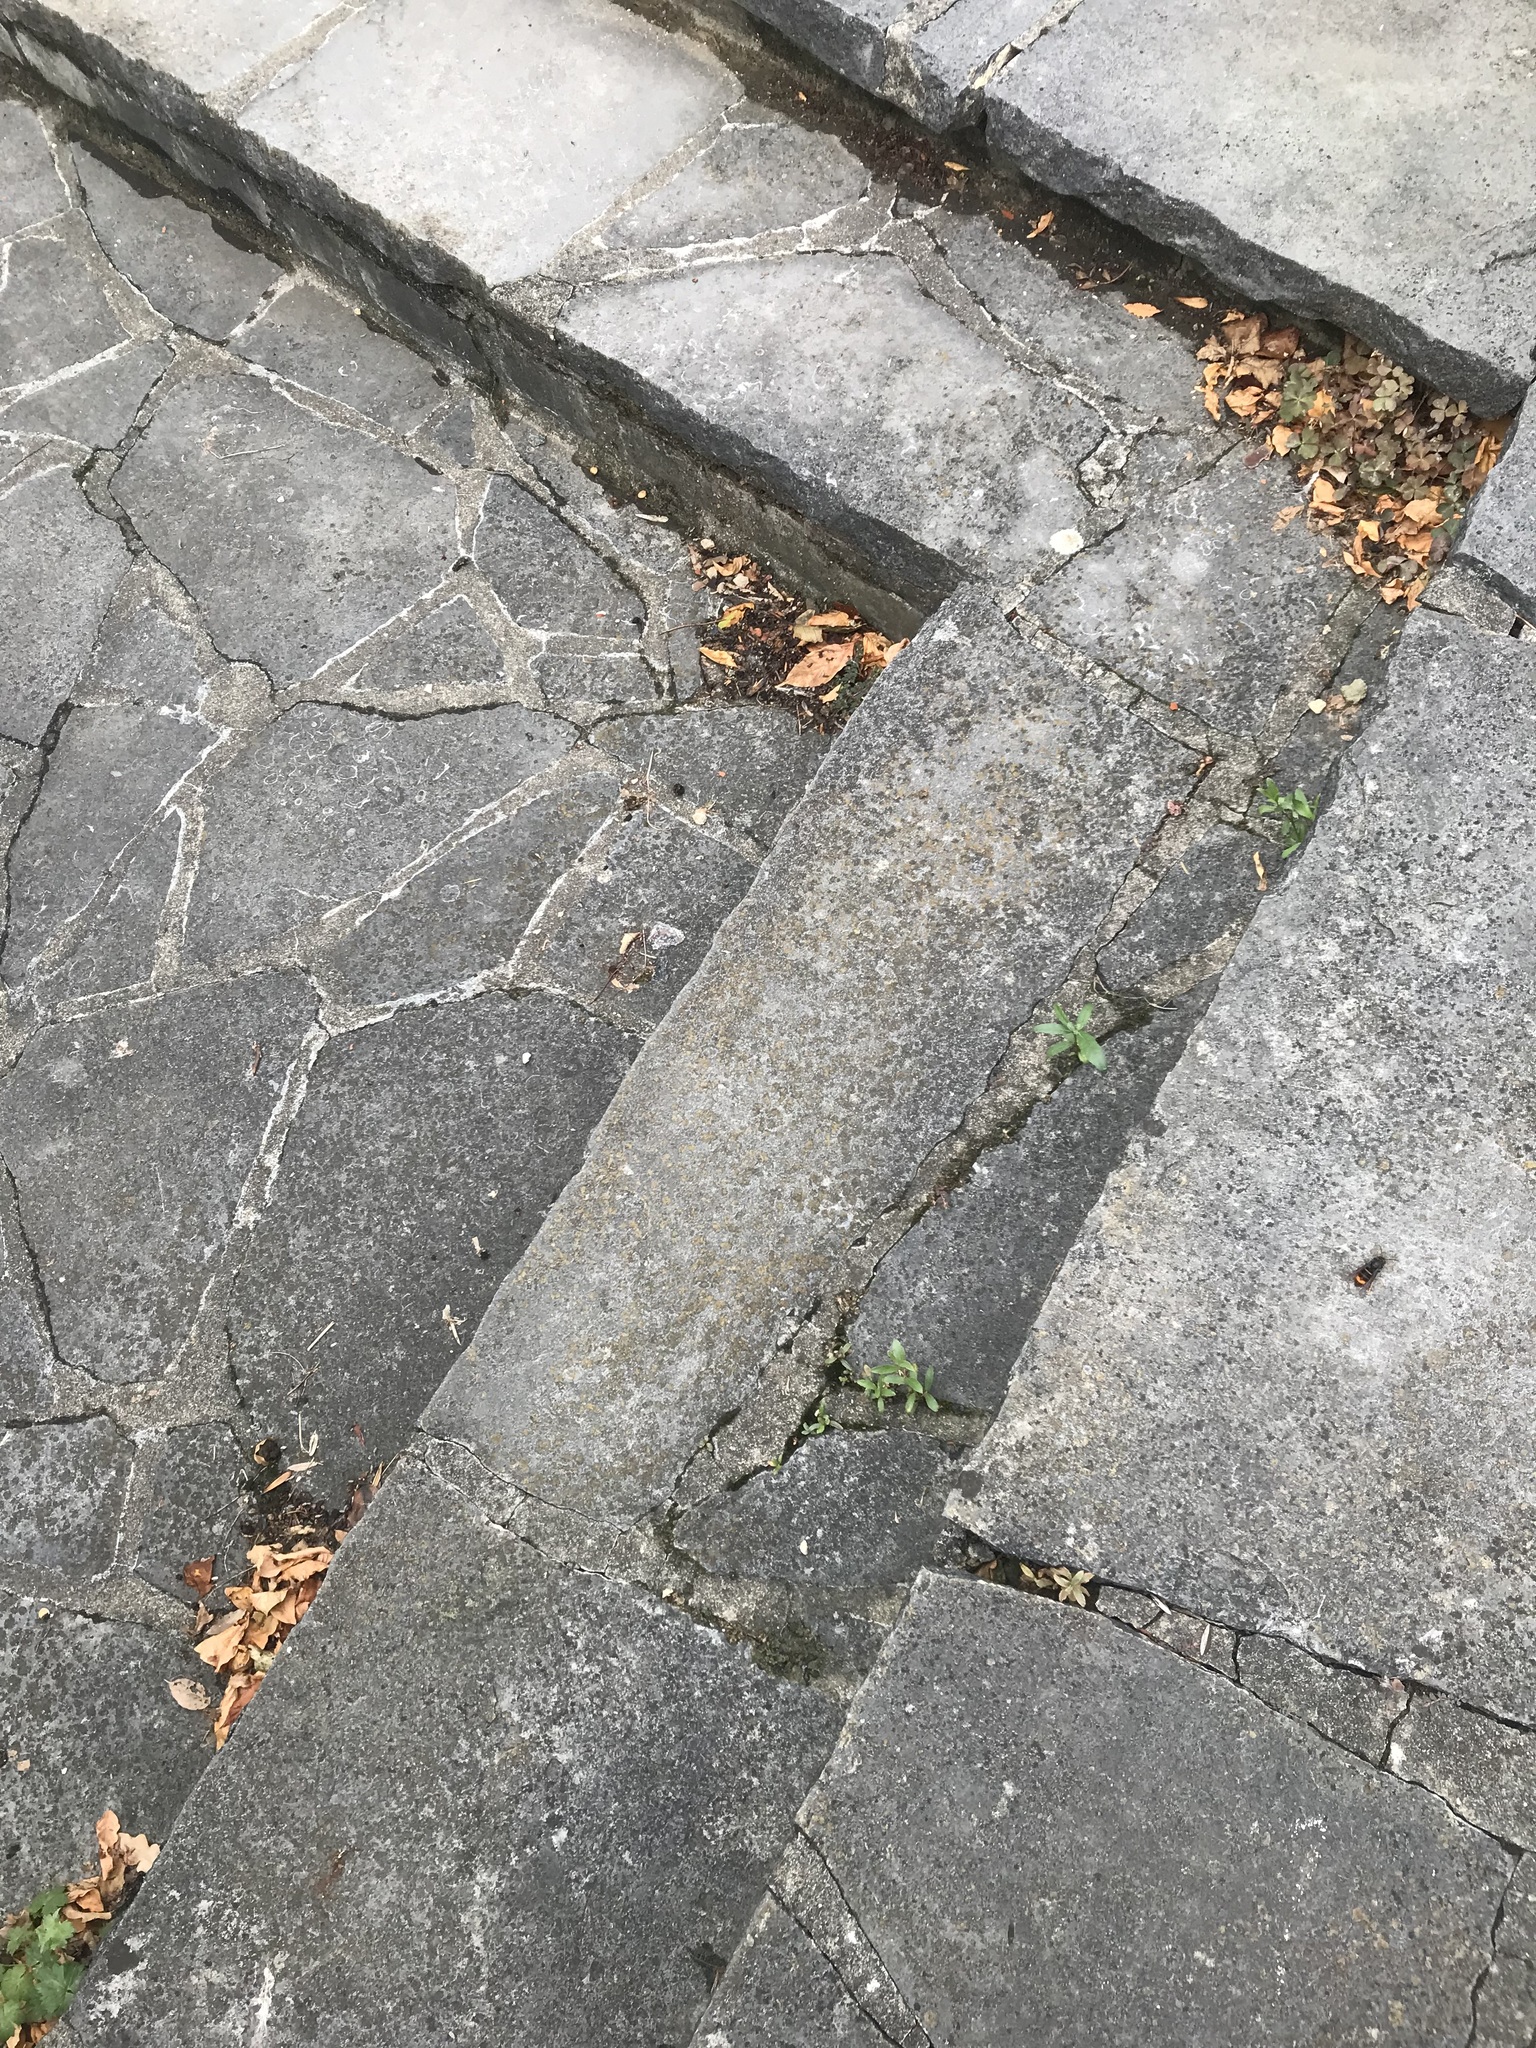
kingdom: Animalia
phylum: Arthropoda
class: Insecta
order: Hymenoptera
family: Vespidae
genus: Vespa
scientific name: Vespa velutina
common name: Asian hornet
